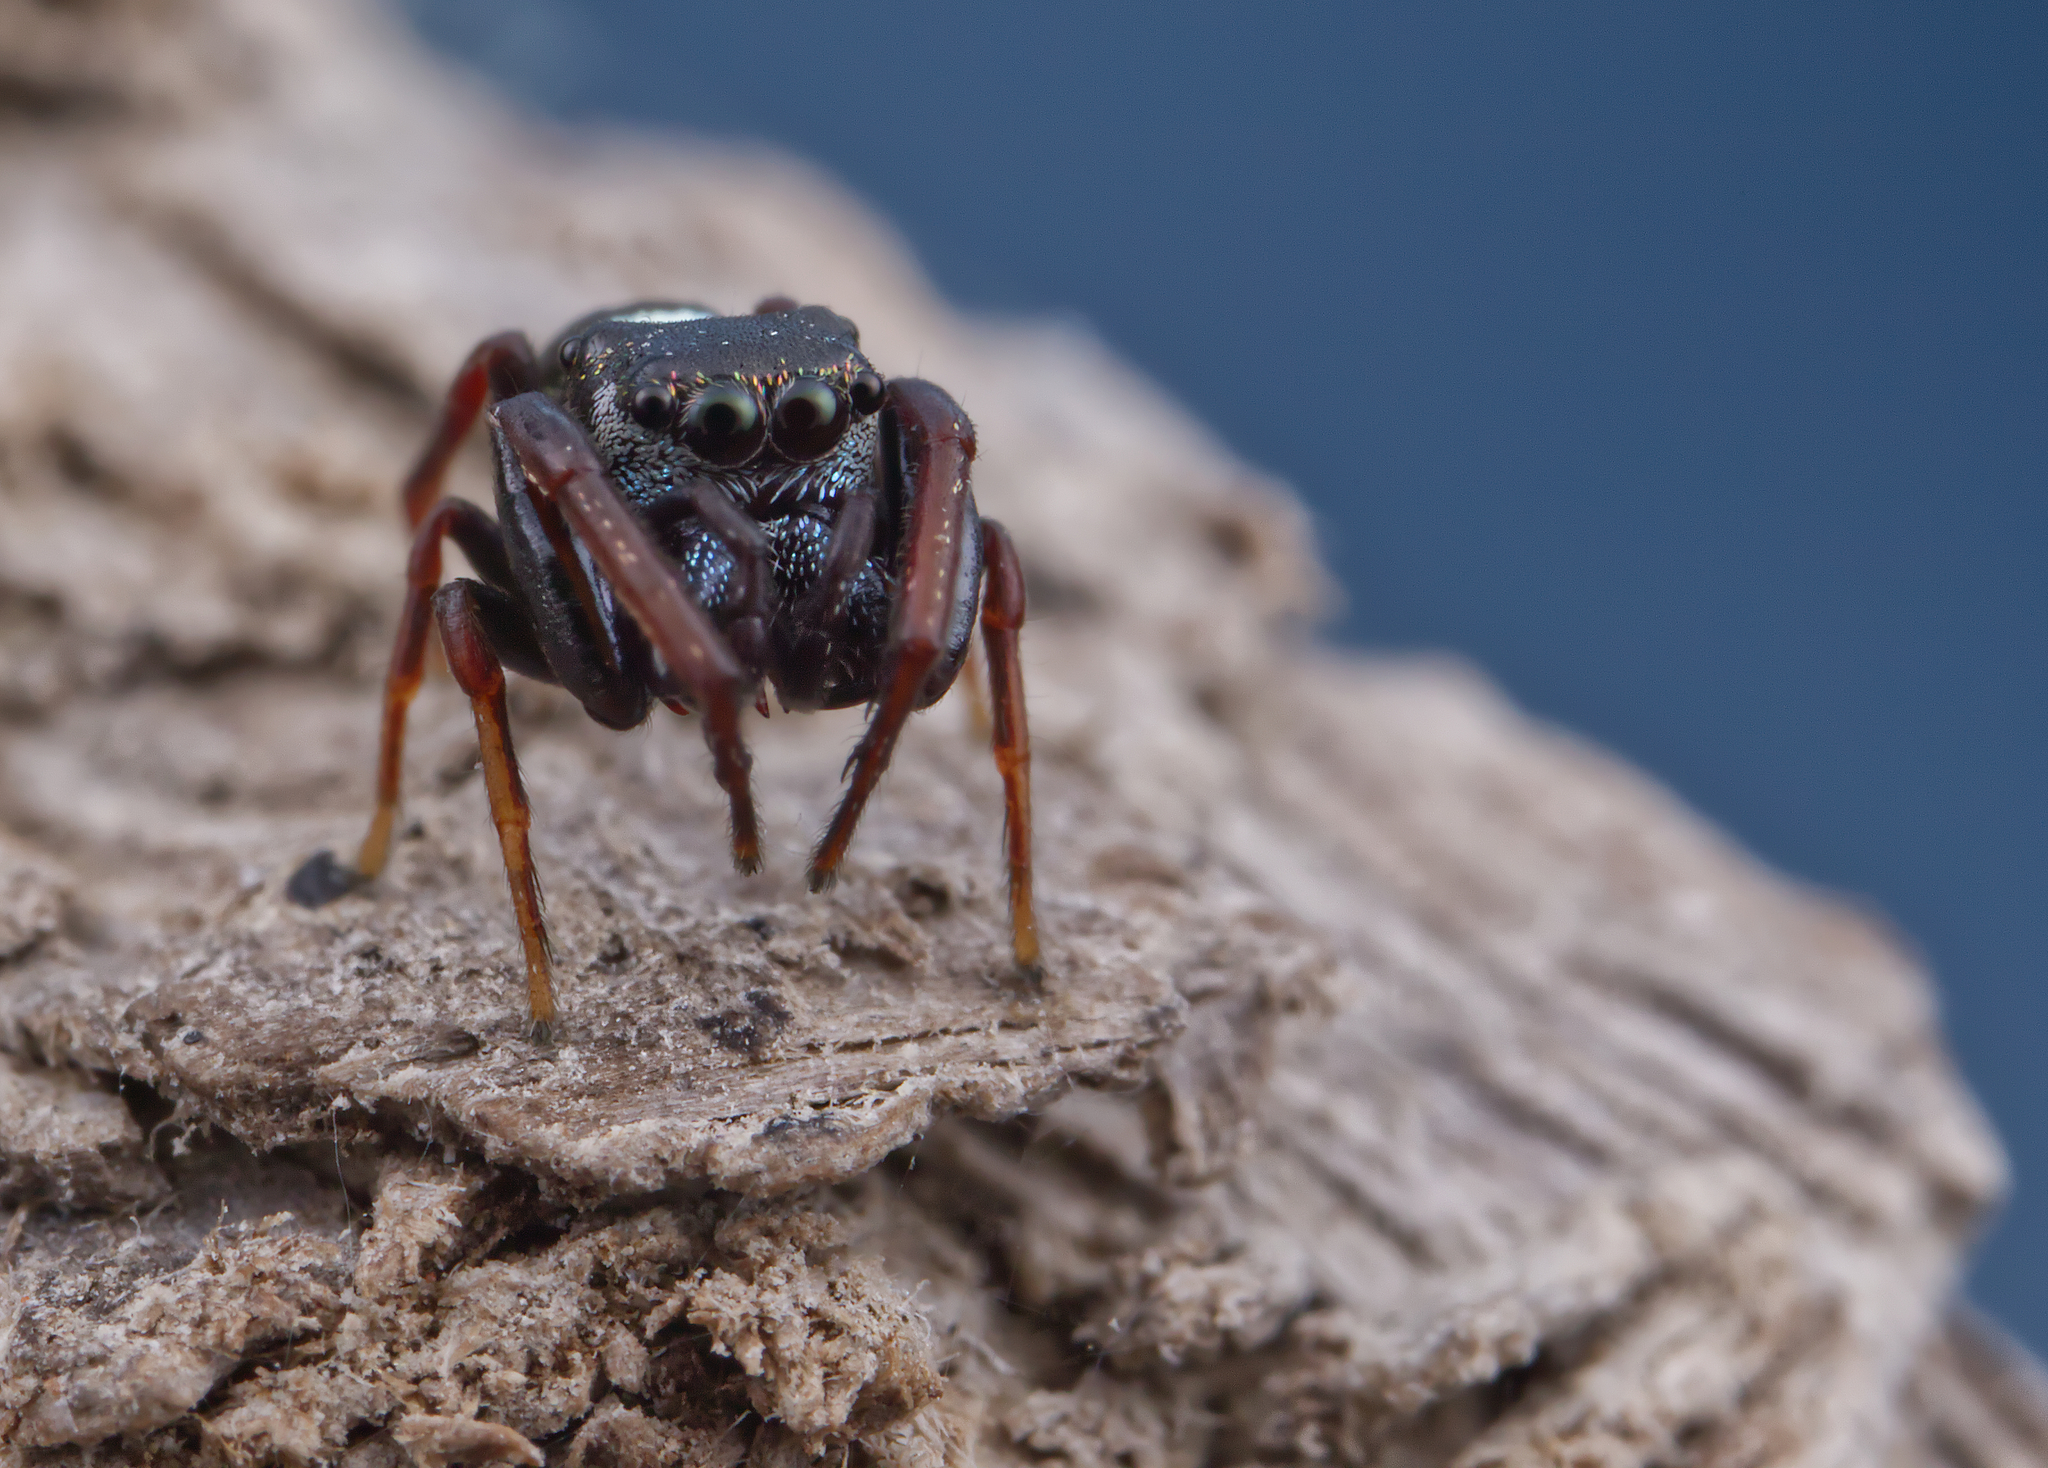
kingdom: Animalia
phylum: Arthropoda
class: Arachnida
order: Araneae
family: Salticidae
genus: Zygoballus
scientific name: Zygoballus sexpunctatus
